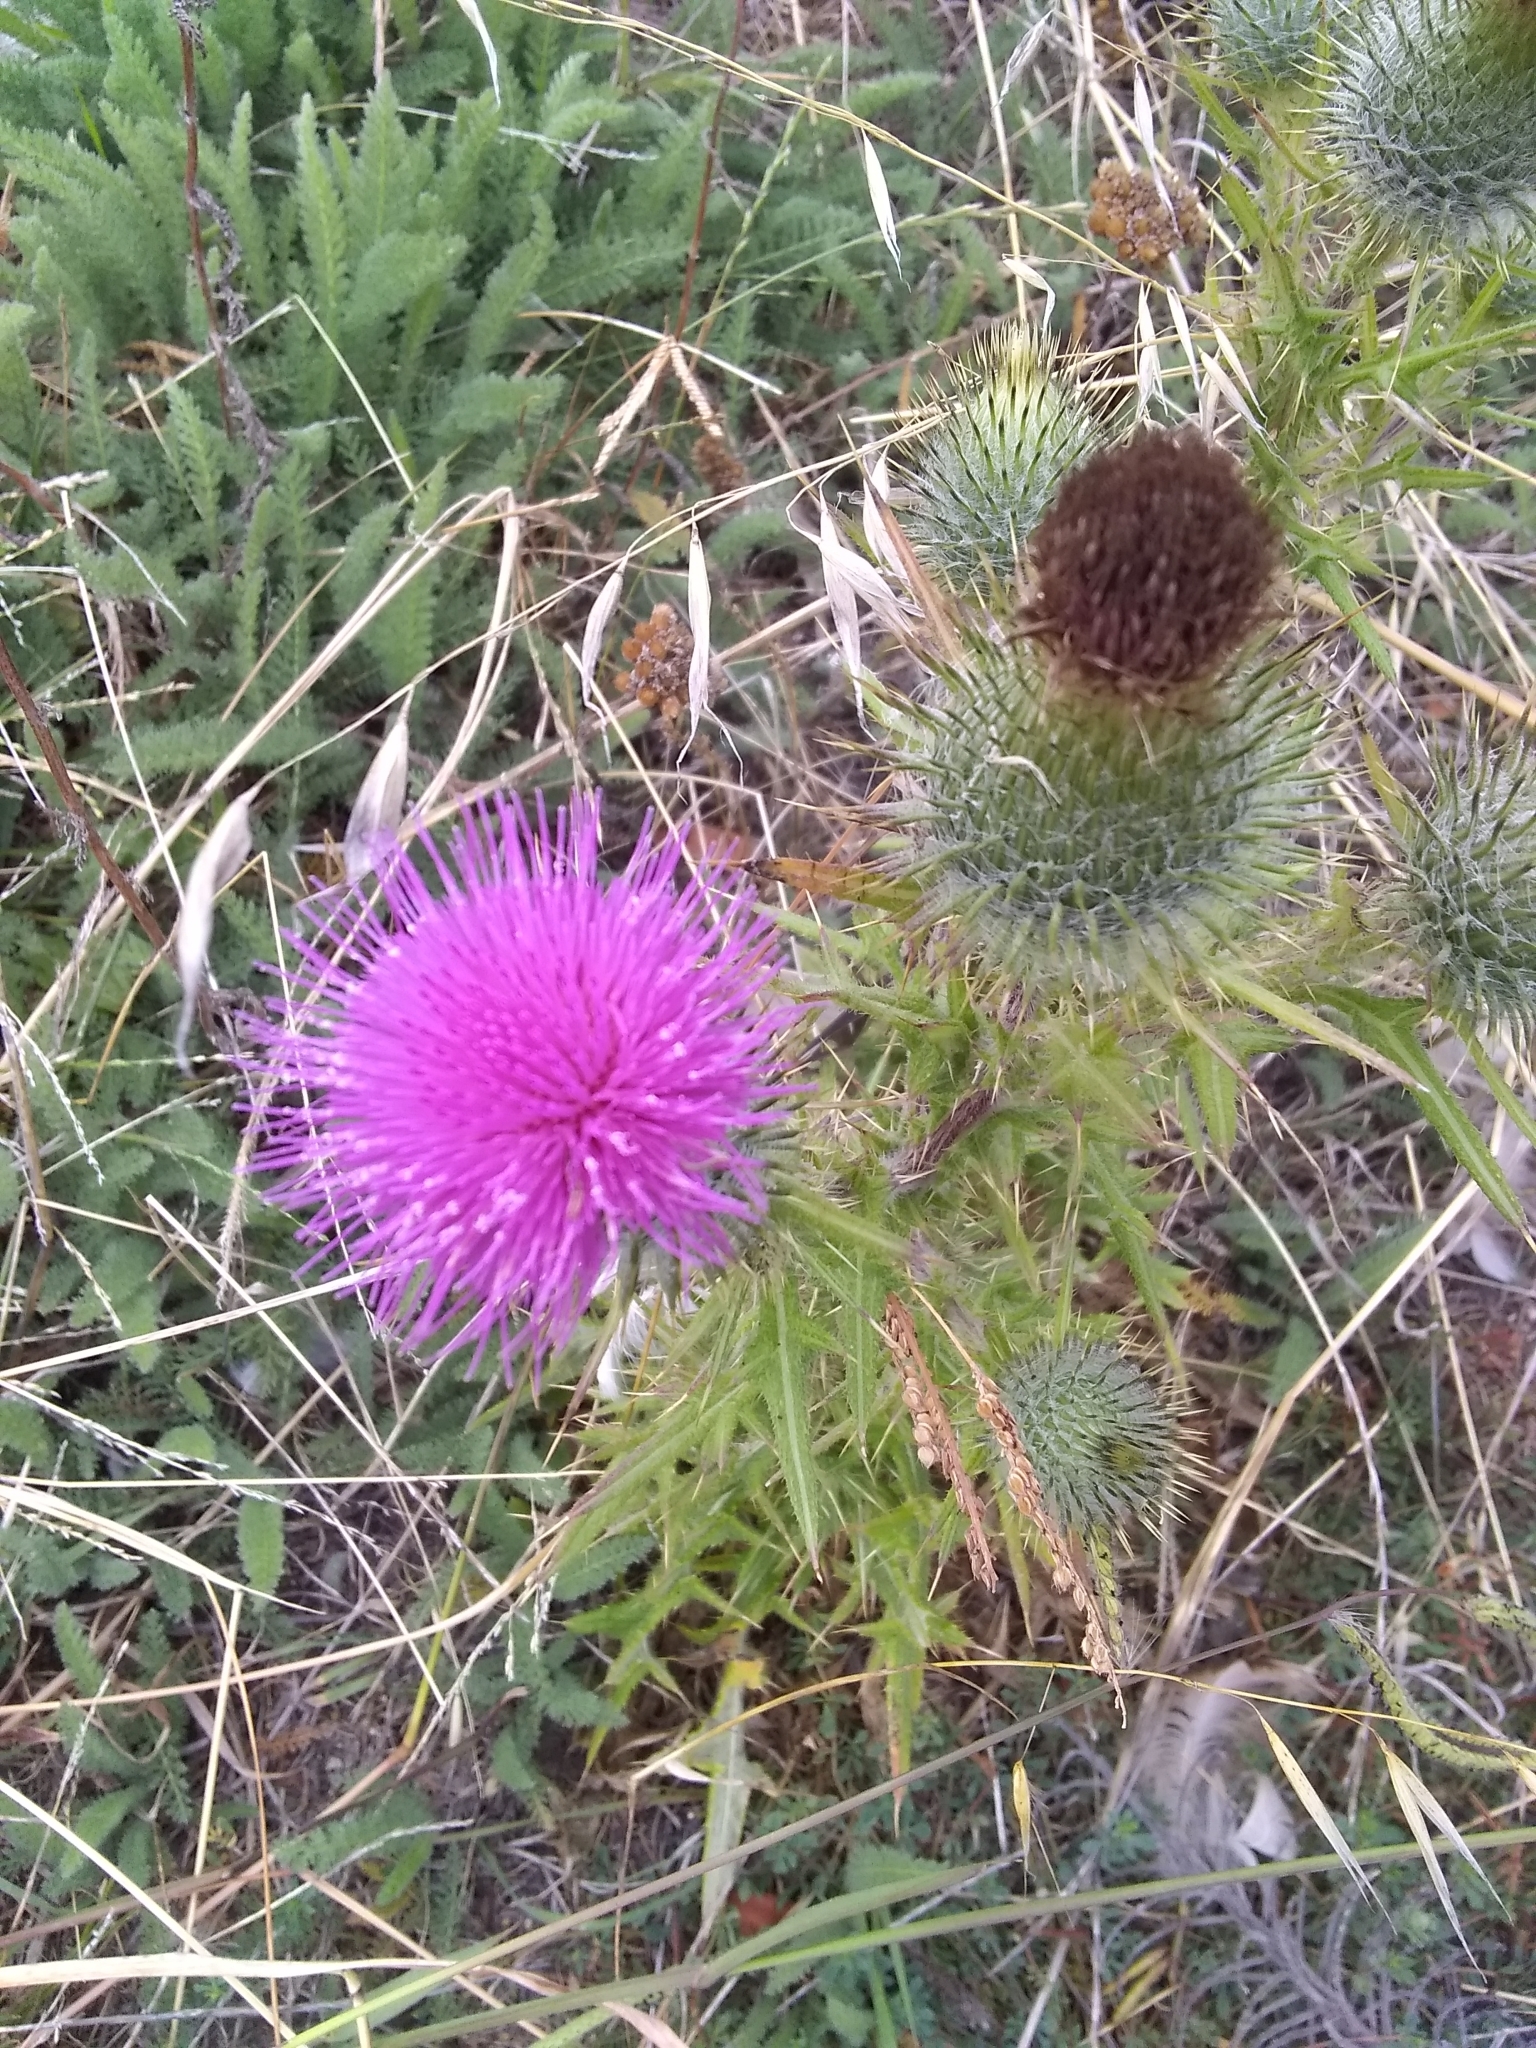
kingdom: Plantae
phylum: Tracheophyta
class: Magnoliopsida
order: Asterales
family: Asteraceae
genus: Cirsium
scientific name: Cirsium vulgare
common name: Bull thistle
